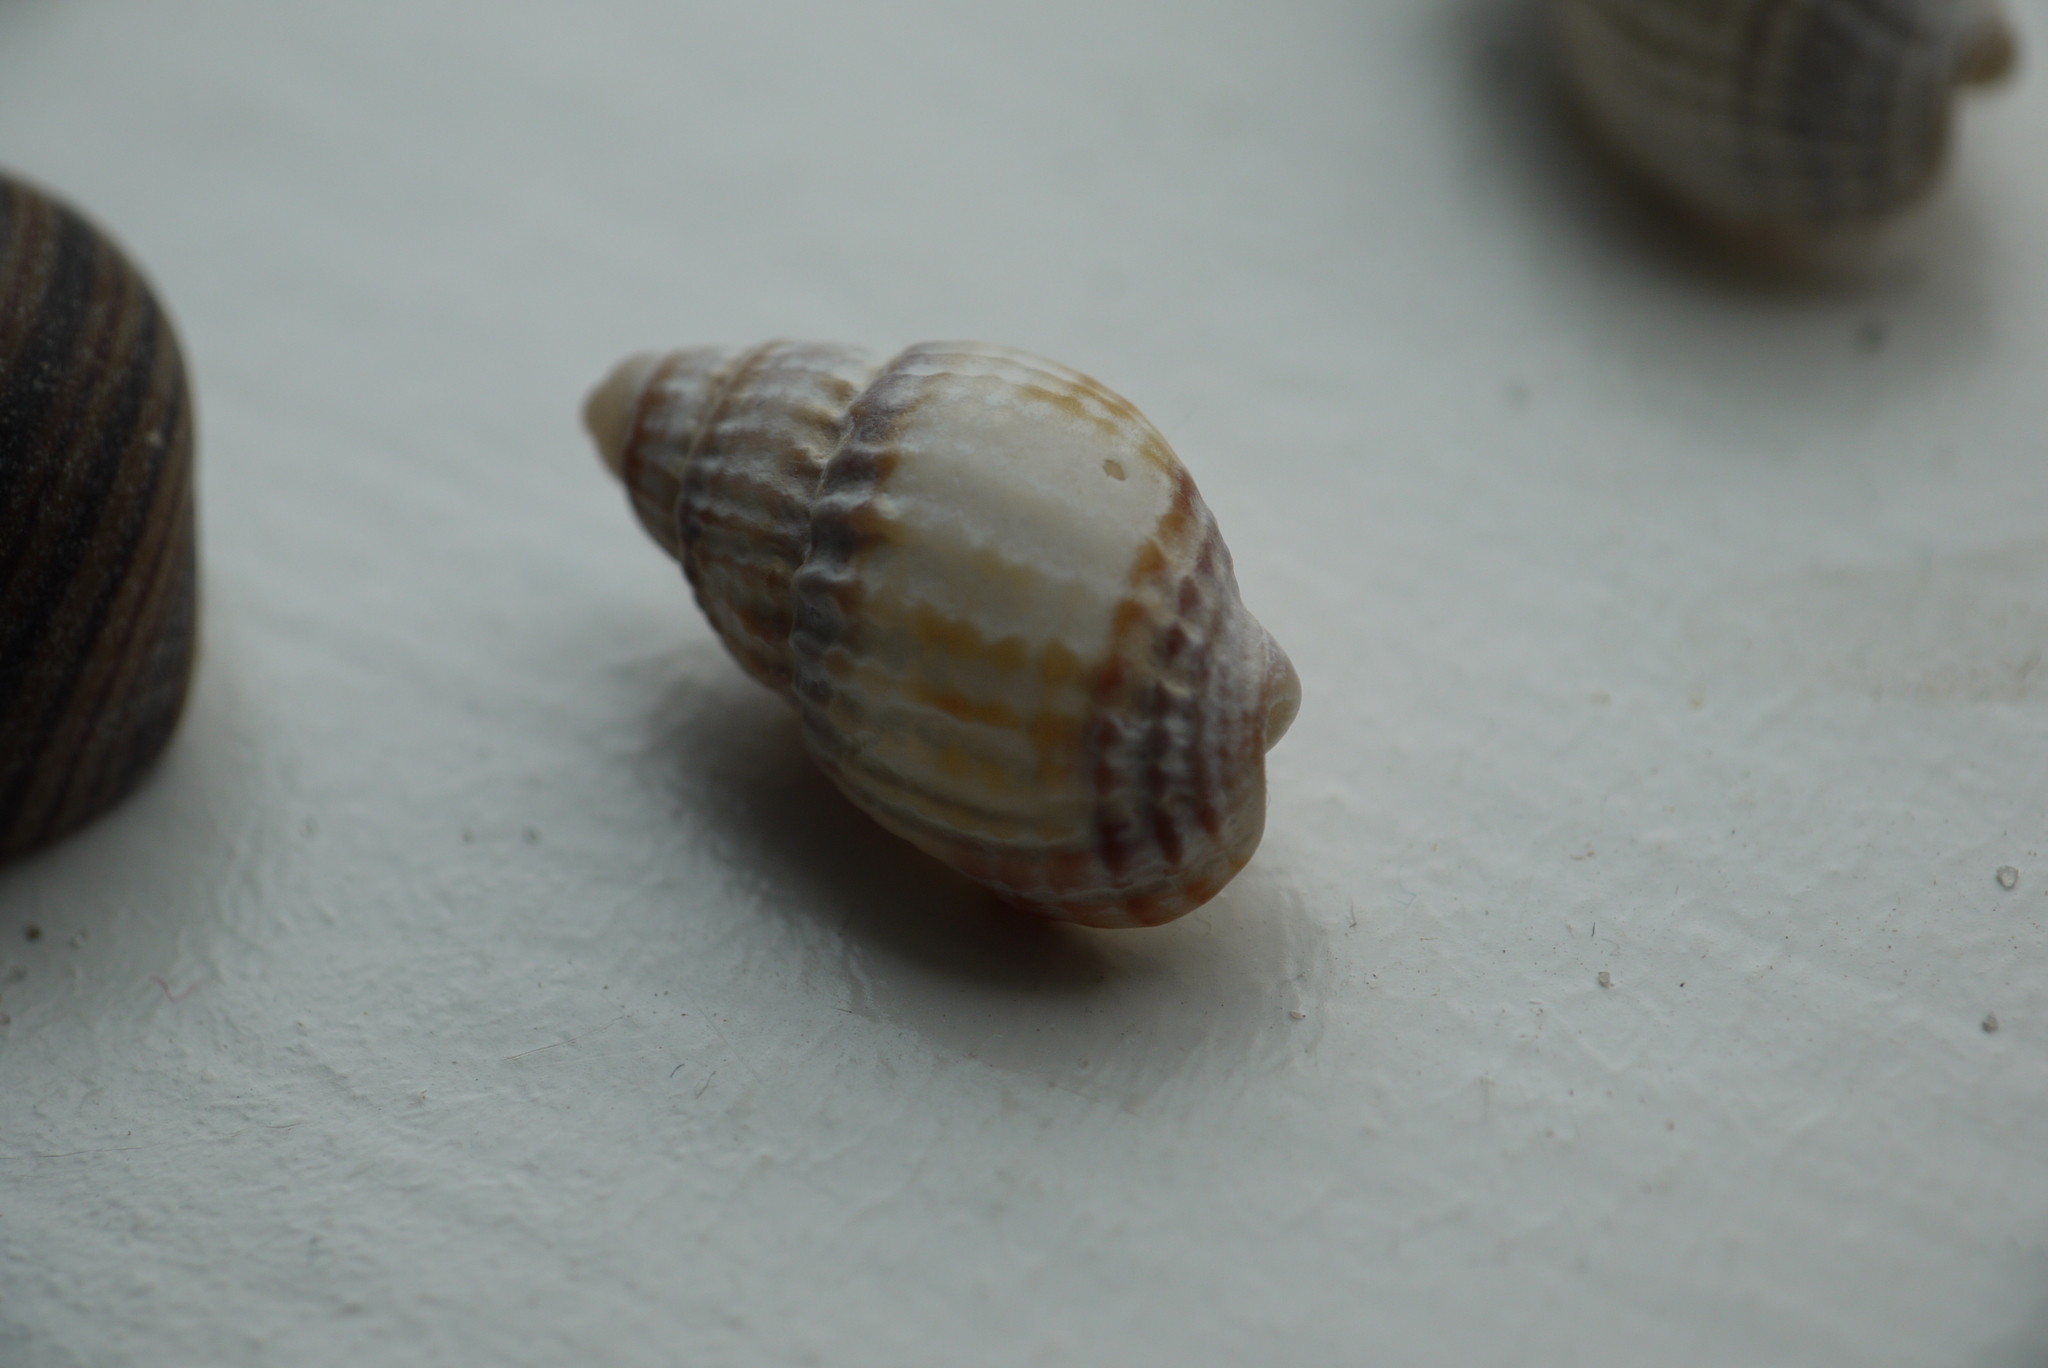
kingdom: Animalia
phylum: Mollusca
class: Gastropoda
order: Neogastropoda
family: Nassariidae
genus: Tritia
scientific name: Tritia nitida
